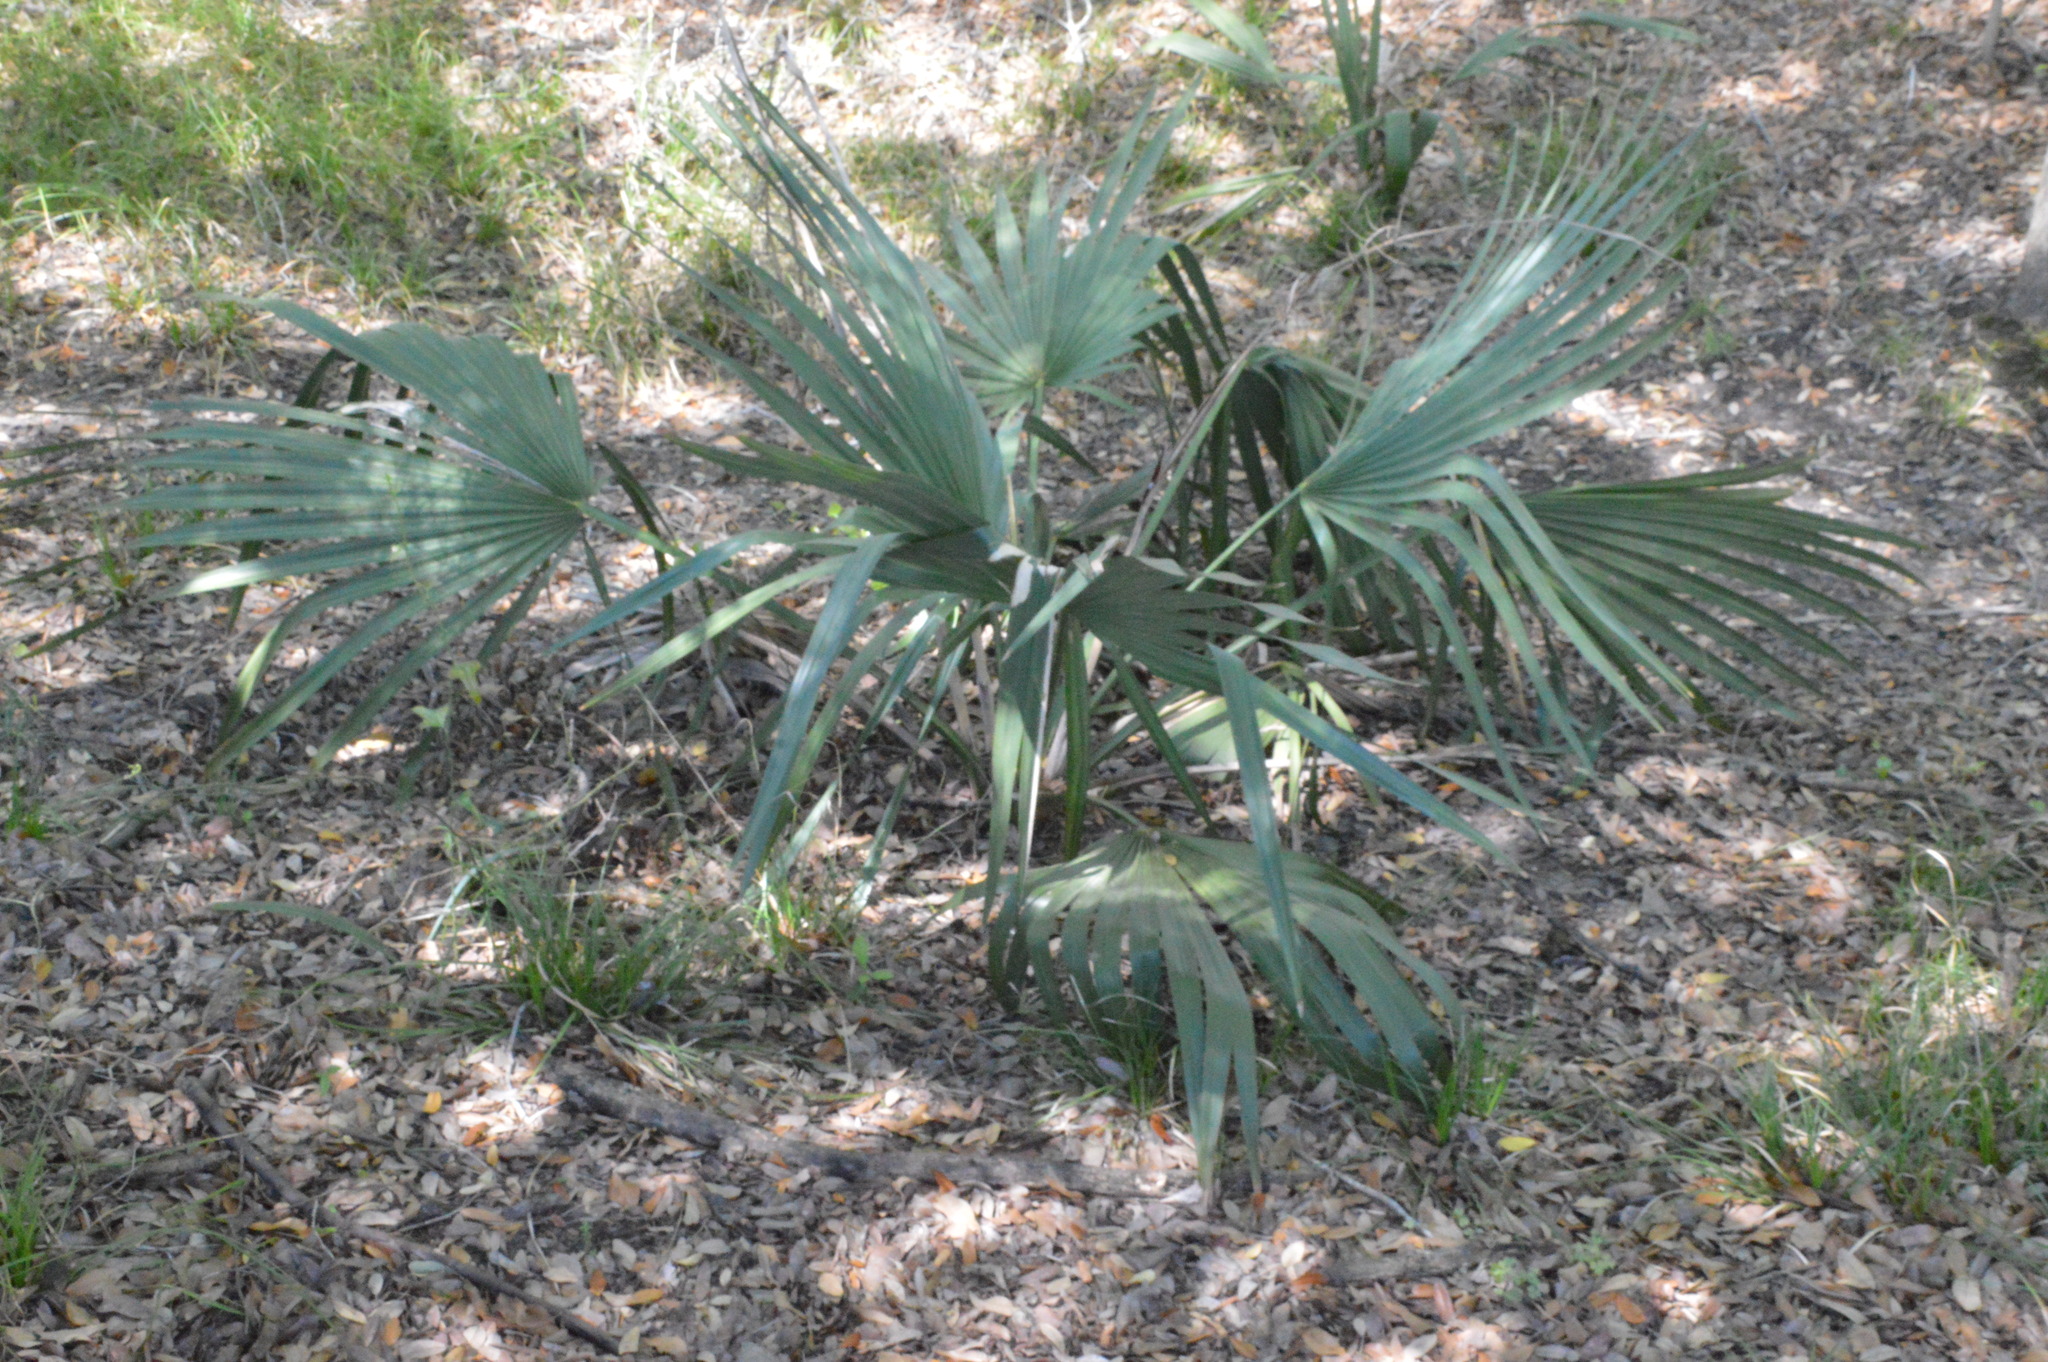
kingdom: Plantae
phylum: Tracheophyta
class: Liliopsida
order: Arecales
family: Arecaceae
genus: Sabal
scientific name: Sabal minor
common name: Dwarf palmetto
